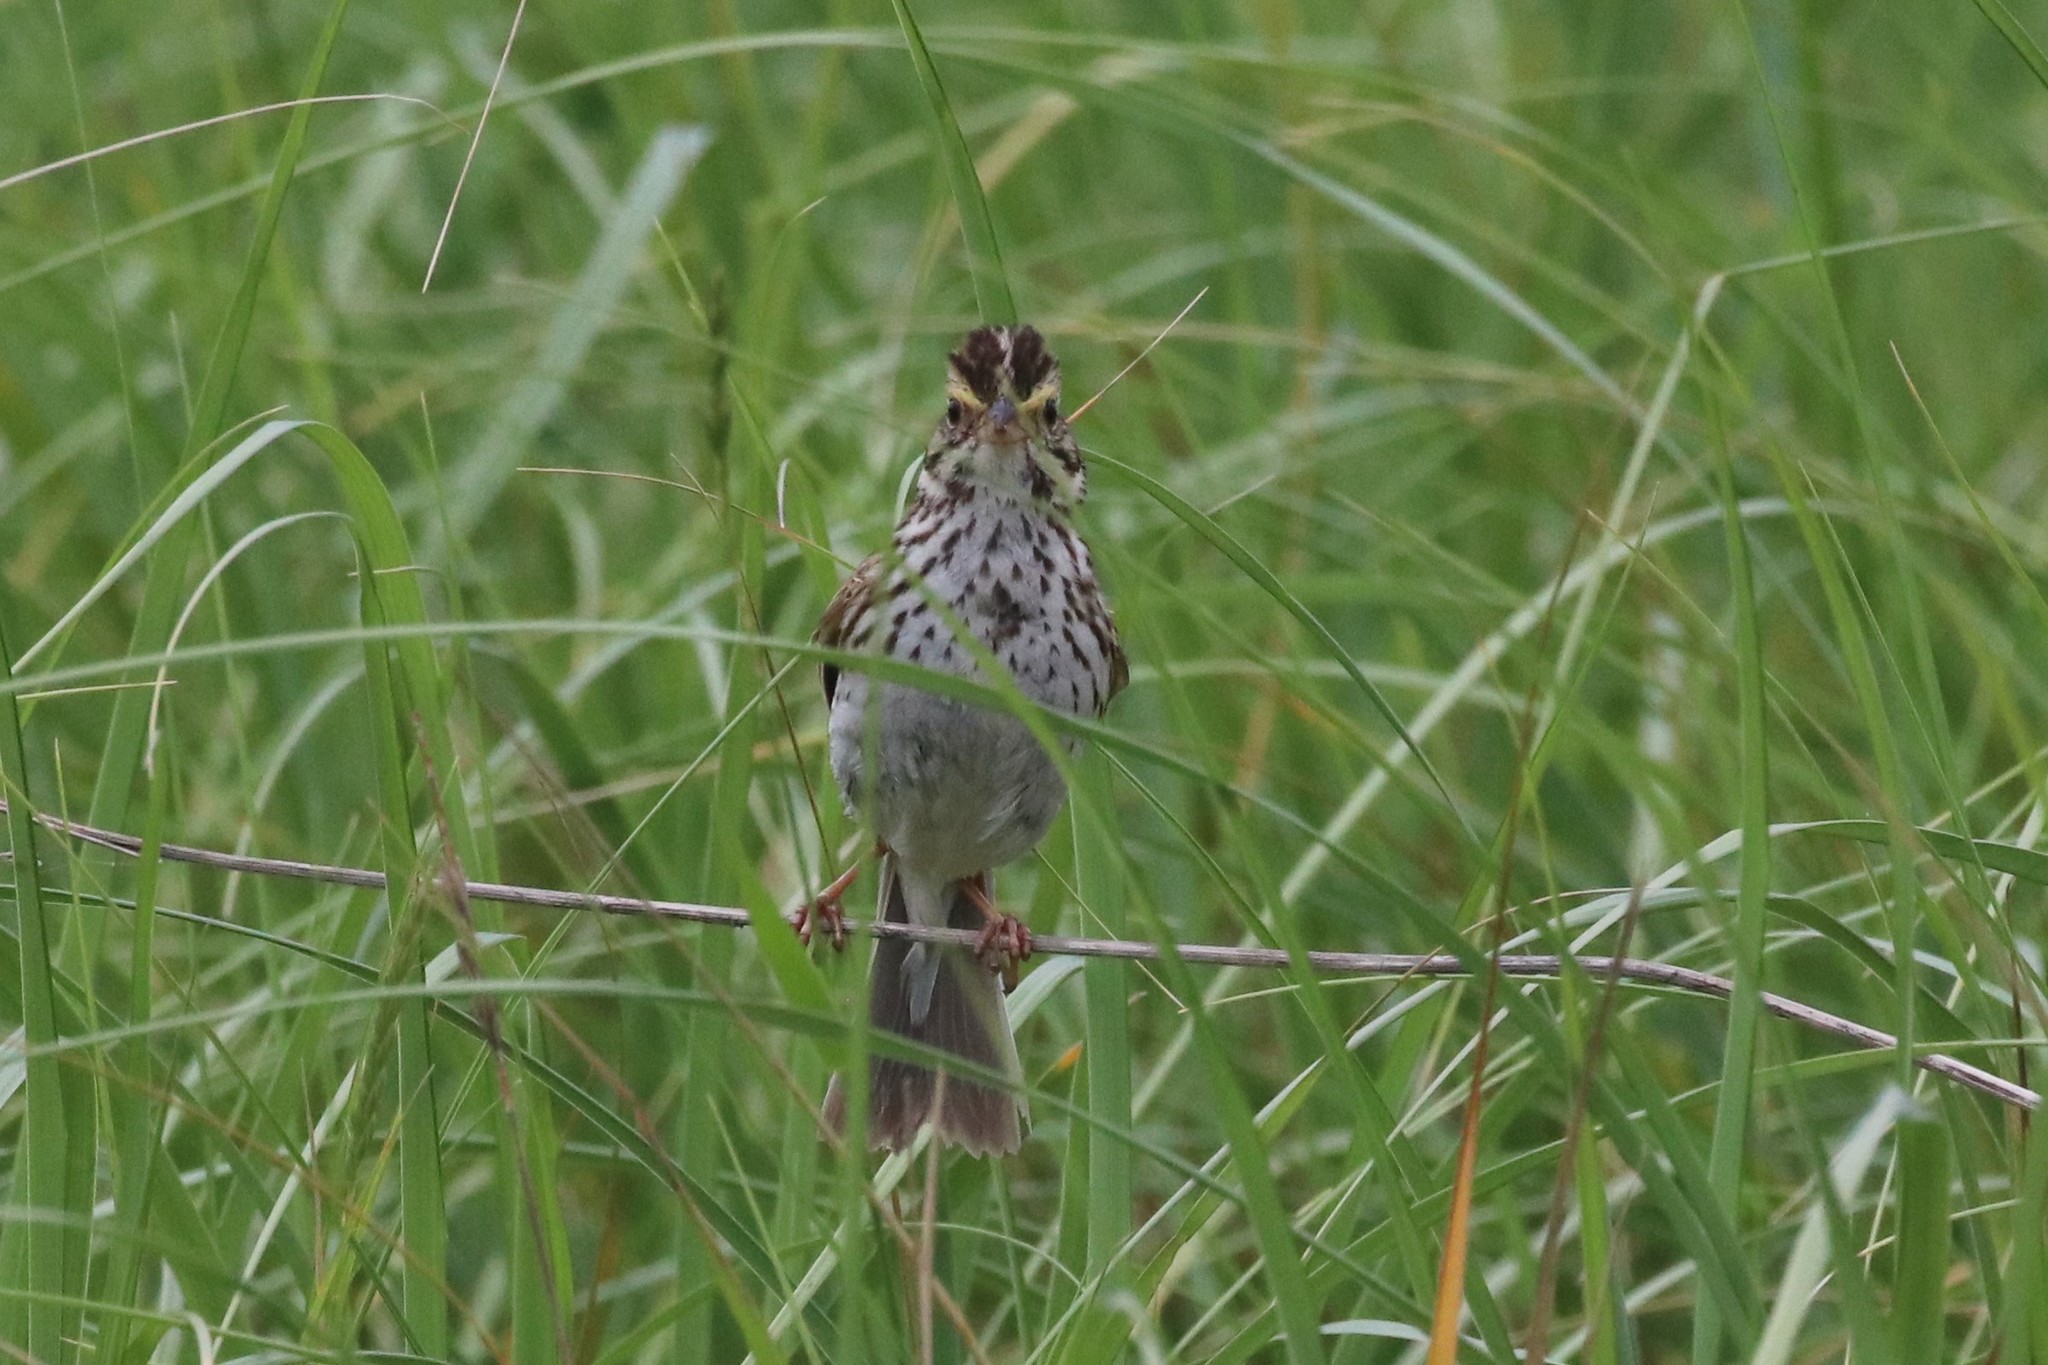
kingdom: Animalia
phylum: Chordata
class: Aves
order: Passeriformes
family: Passerellidae
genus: Passerculus
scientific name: Passerculus sandwichensis
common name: Savannah sparrow
